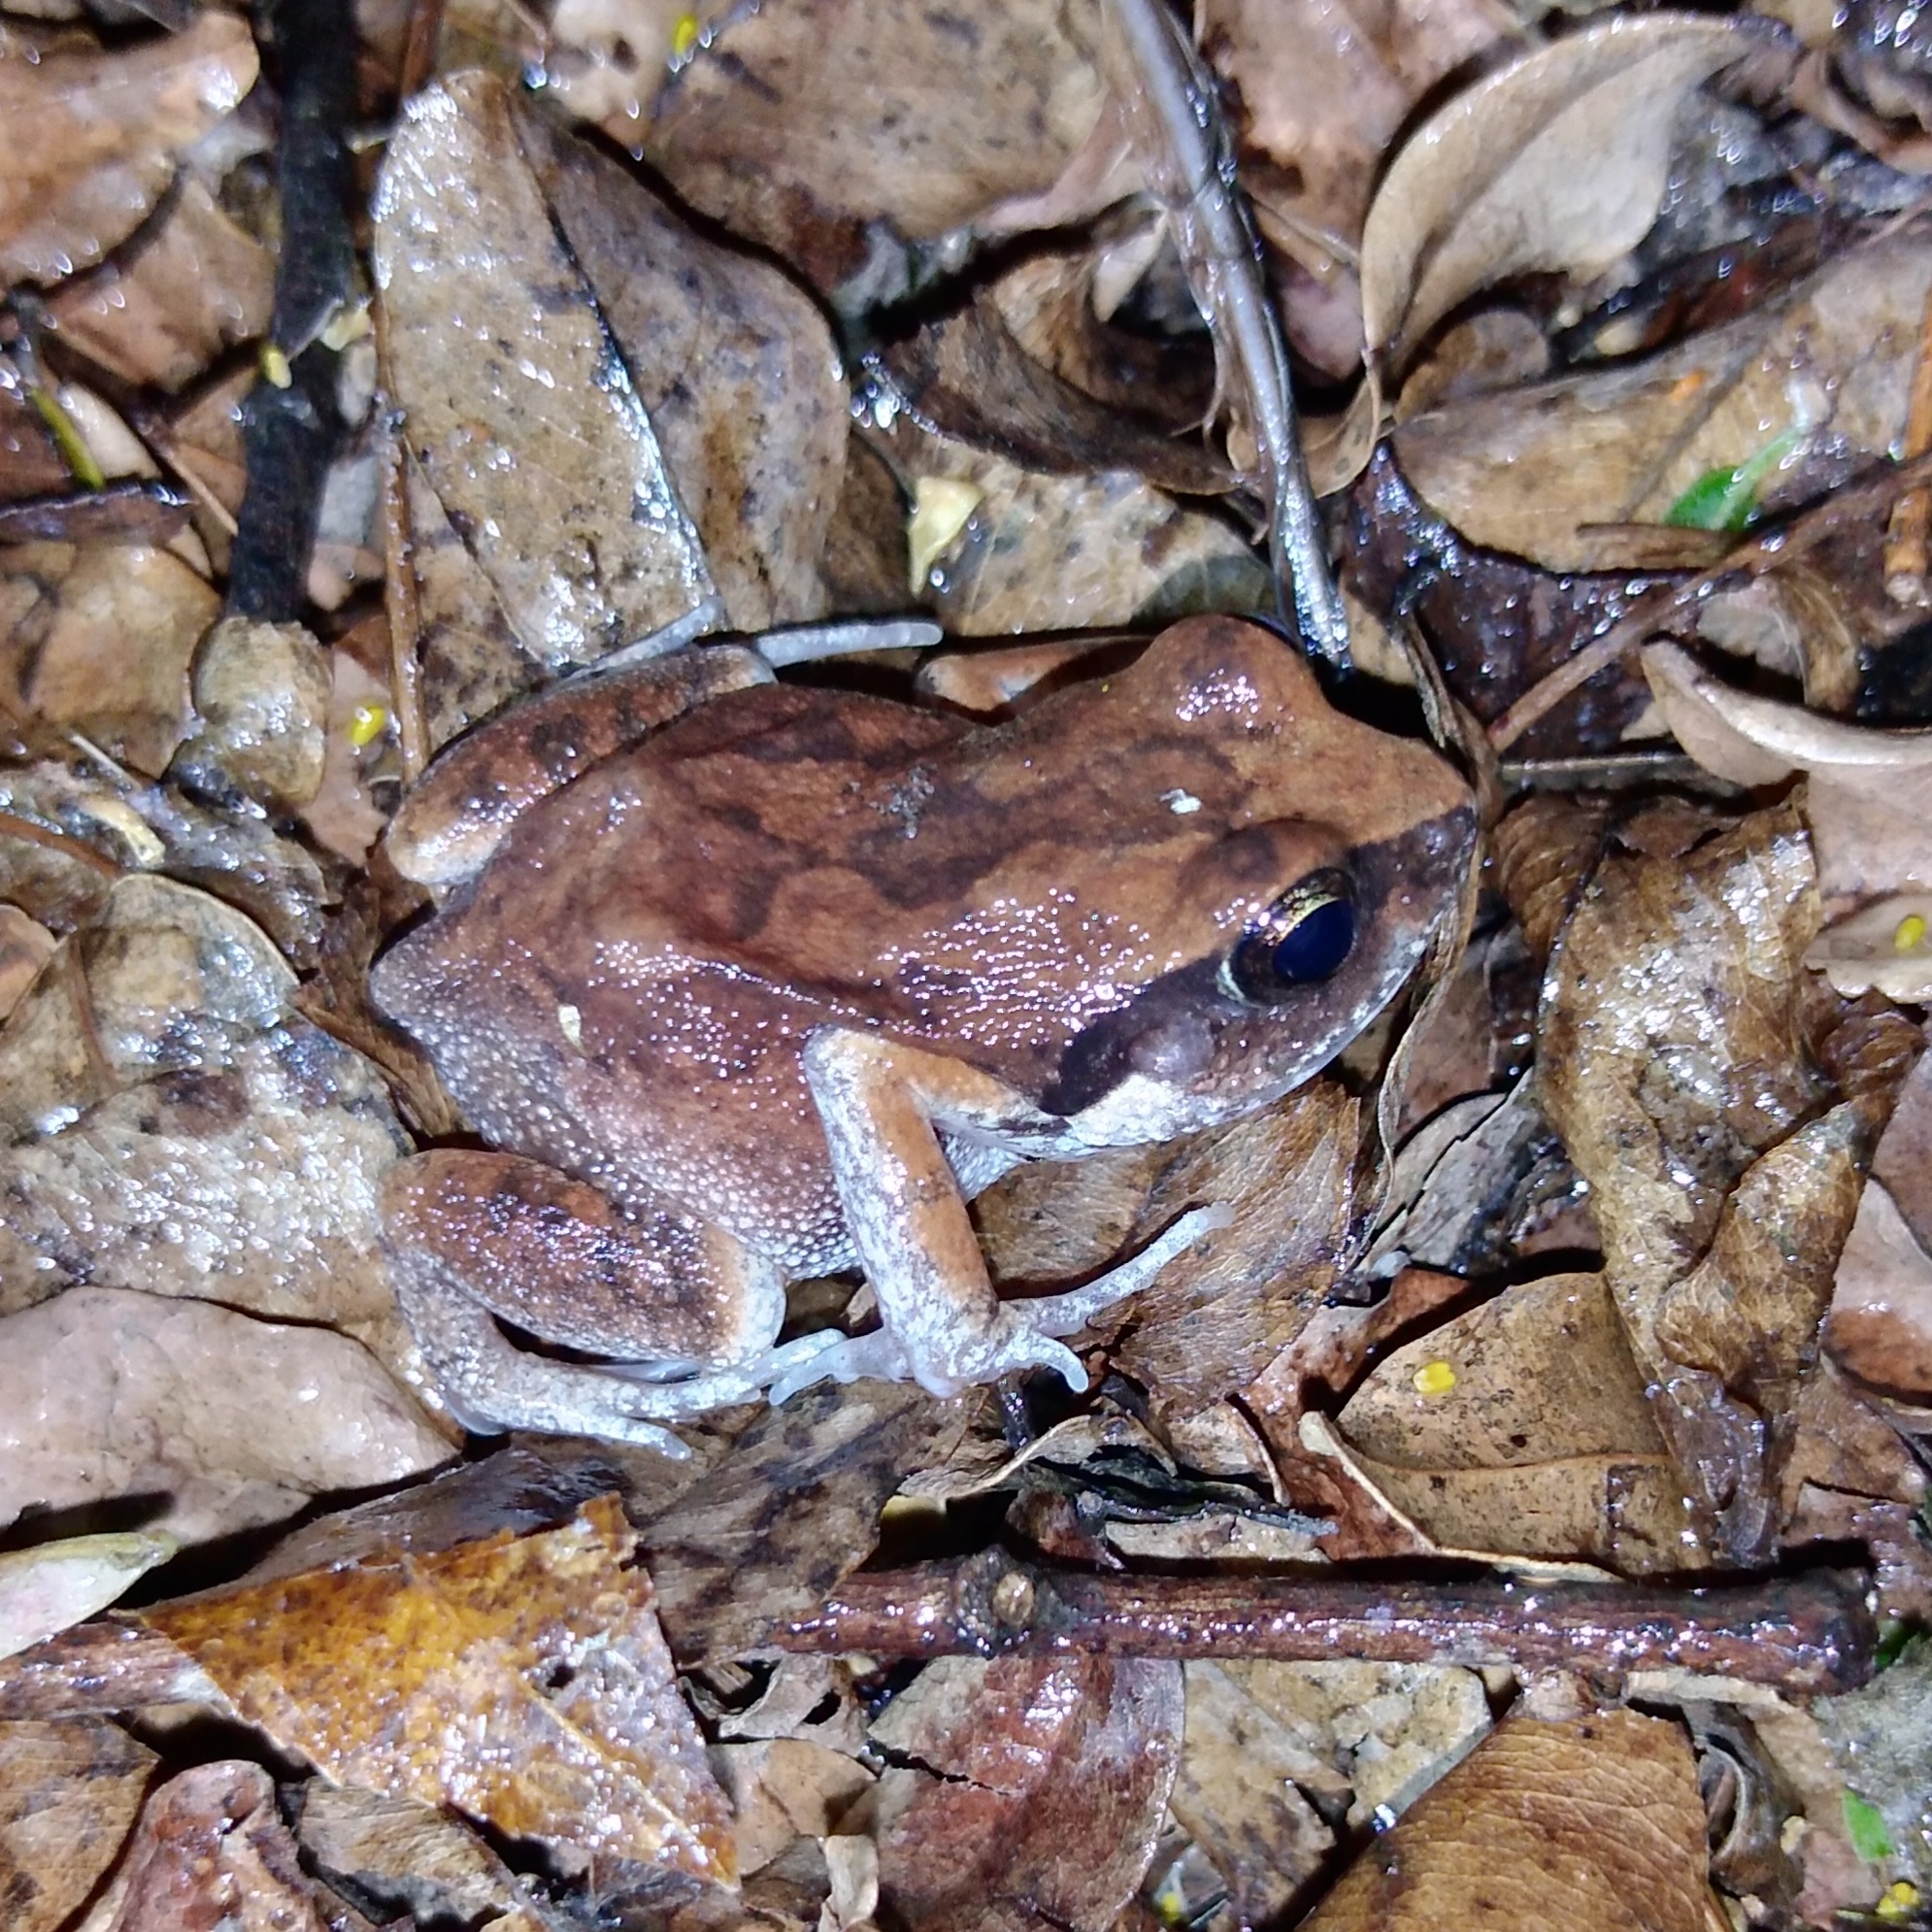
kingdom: Animalia
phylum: Chordata
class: Amphibia
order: Anura
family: Arthroleptidae
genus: Arthroleptis
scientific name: Arthroleptis wahlbergii
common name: Bush squeaker
